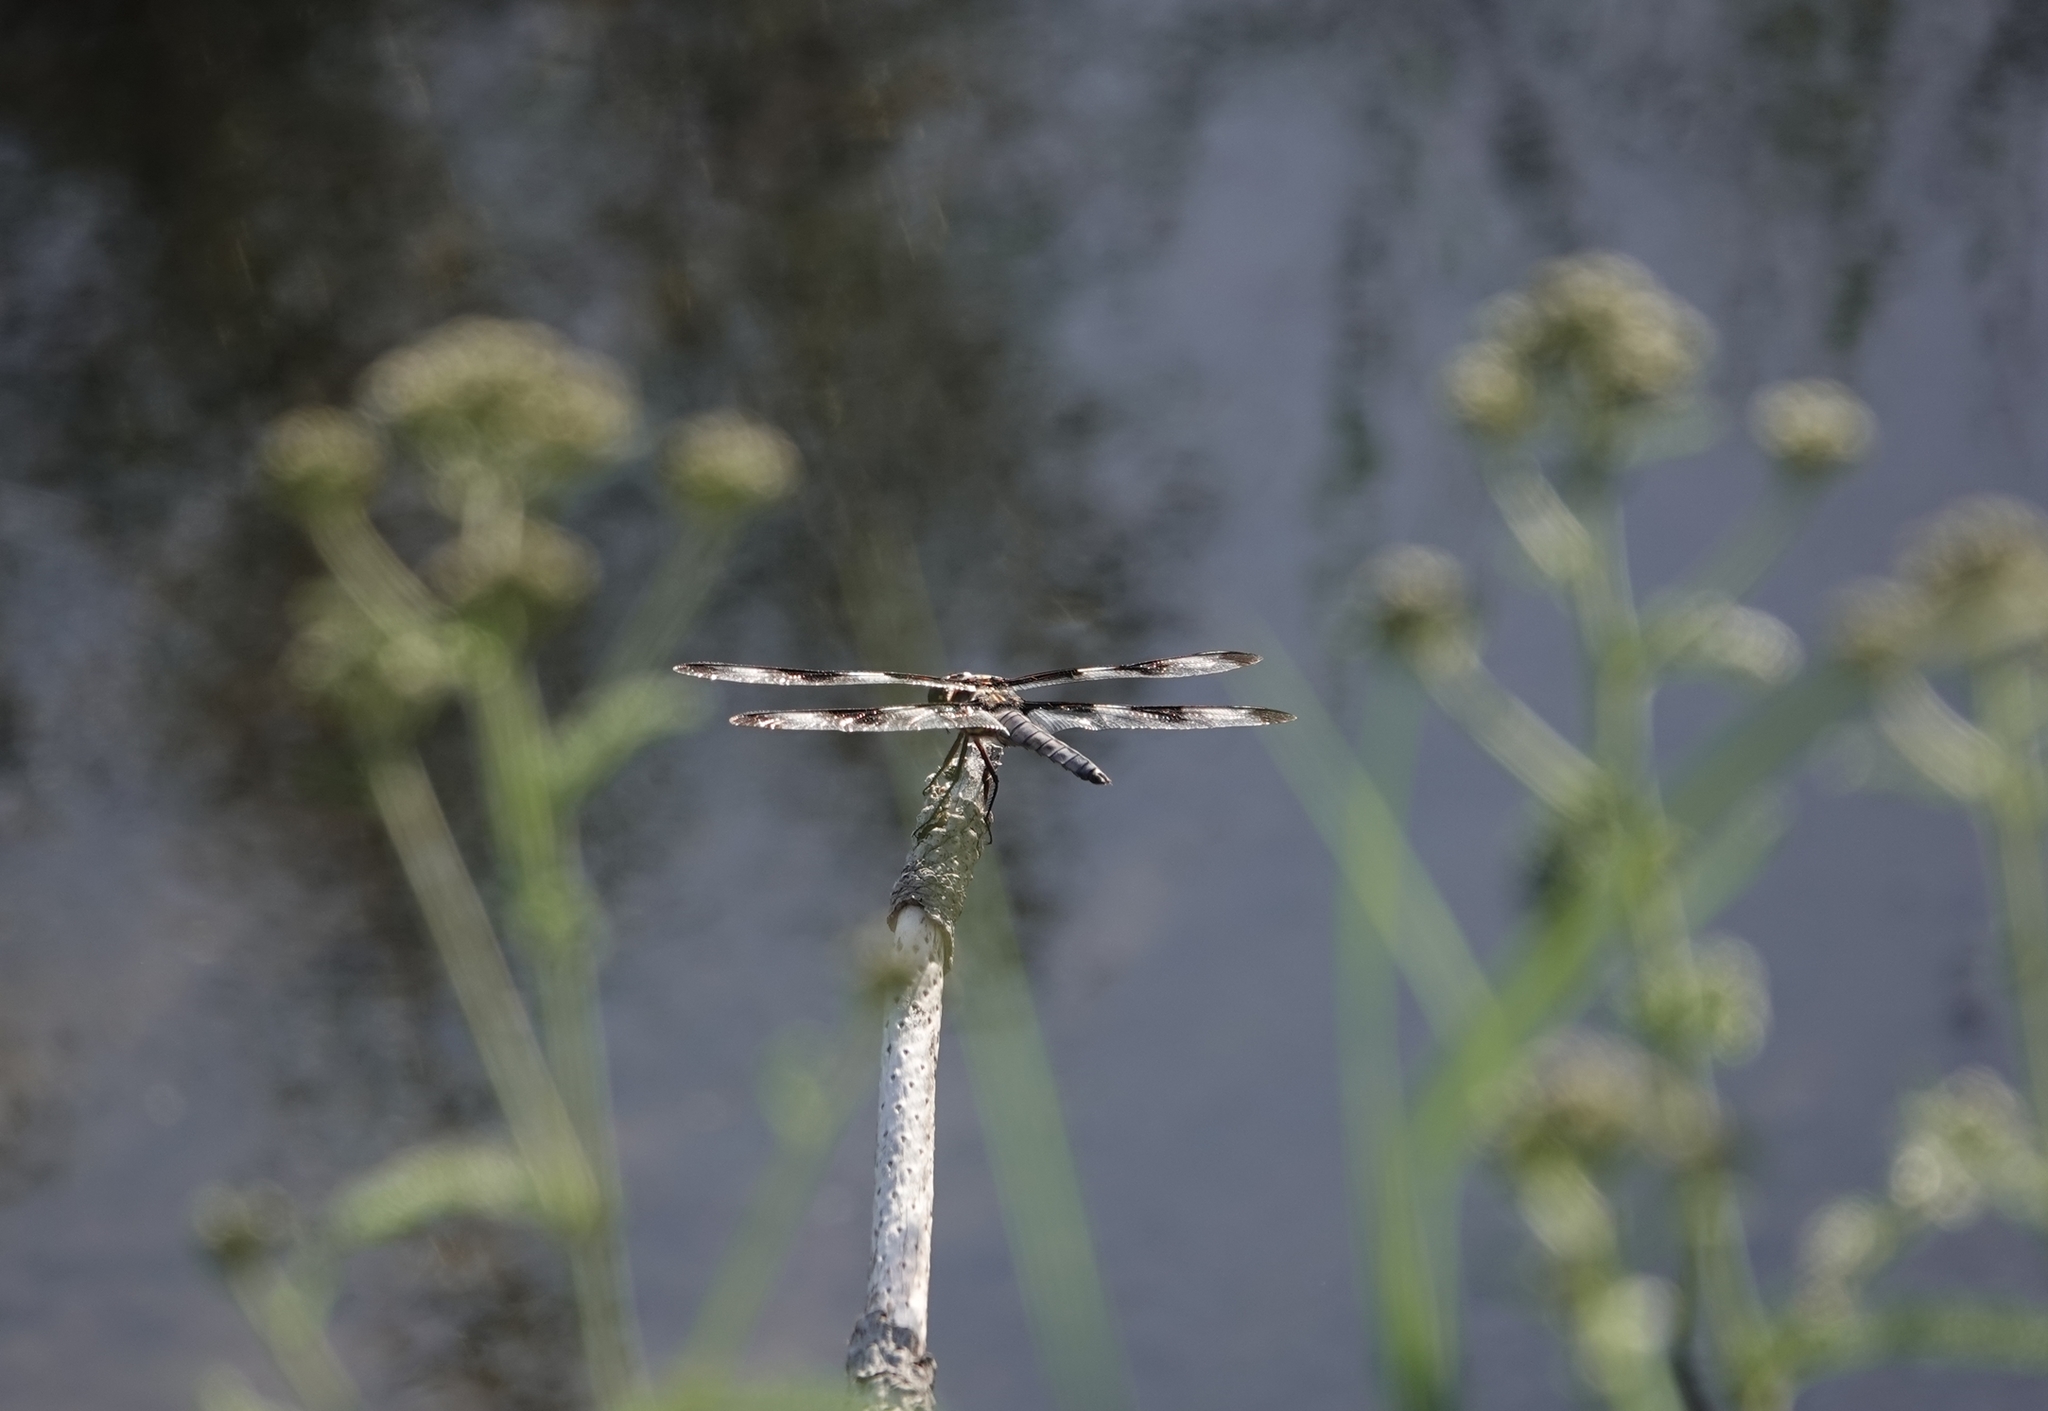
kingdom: Animalia
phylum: Arthropoda
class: Insecta
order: Odonata
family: Libellulidae
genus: Libellula
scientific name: Libellula pulchella
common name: Twelve-spotted skimmer
